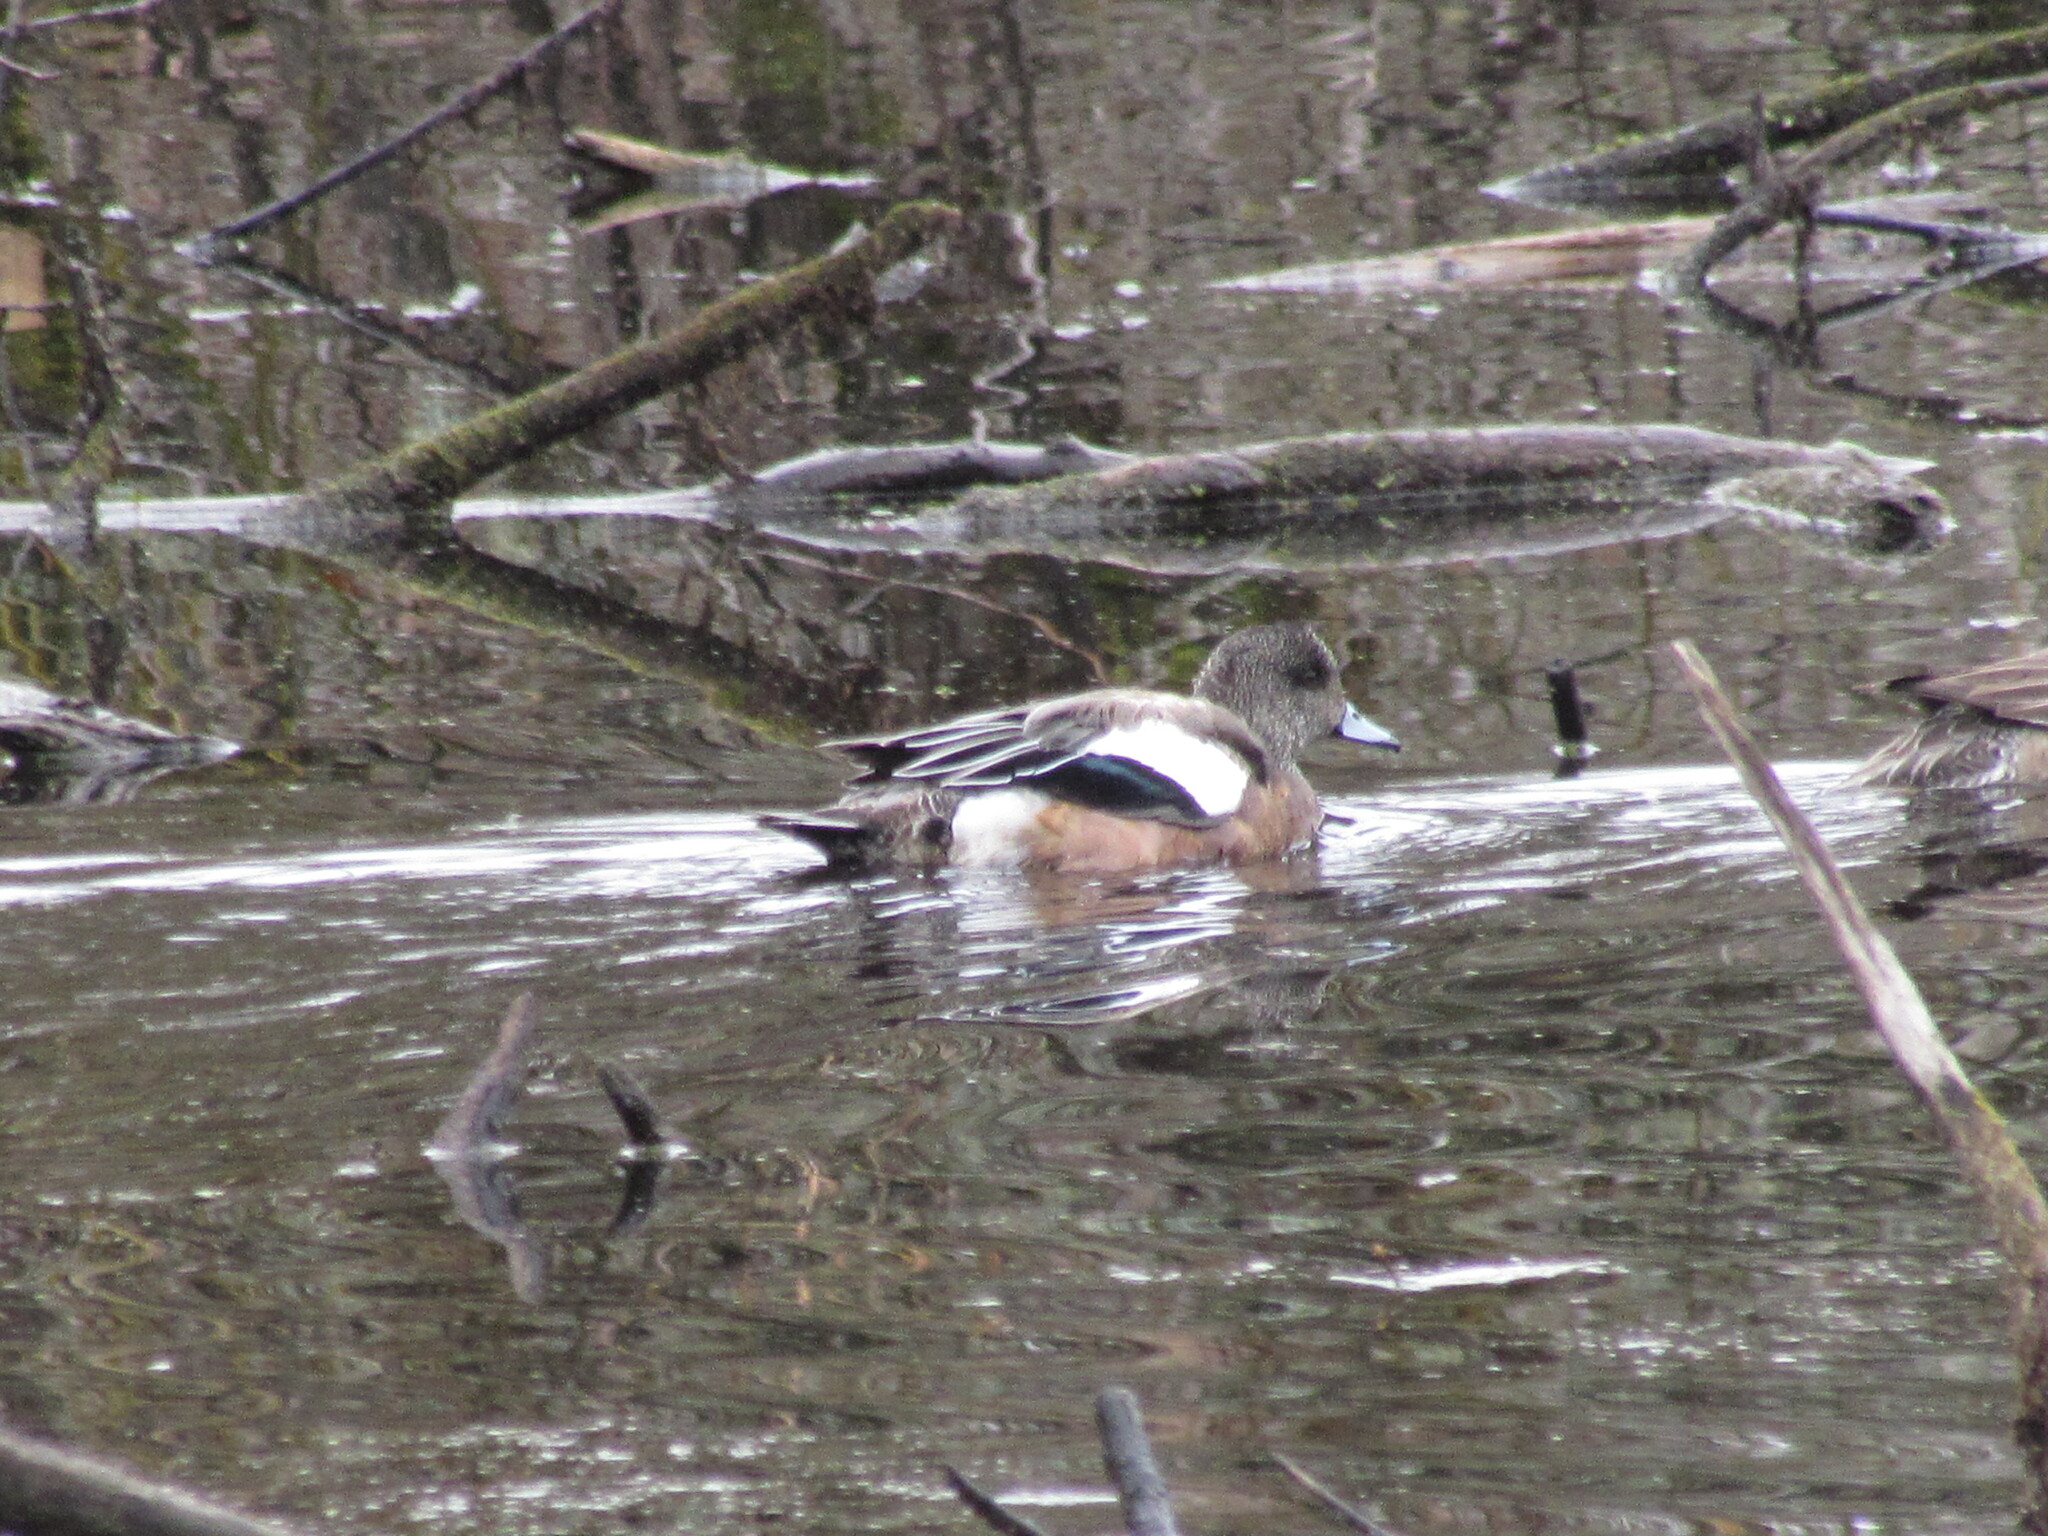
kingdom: Animalia
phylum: Chordata
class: Aves
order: Anseriformes
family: Anatidae
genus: Mareca
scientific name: Mareca americana
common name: American wigeon
